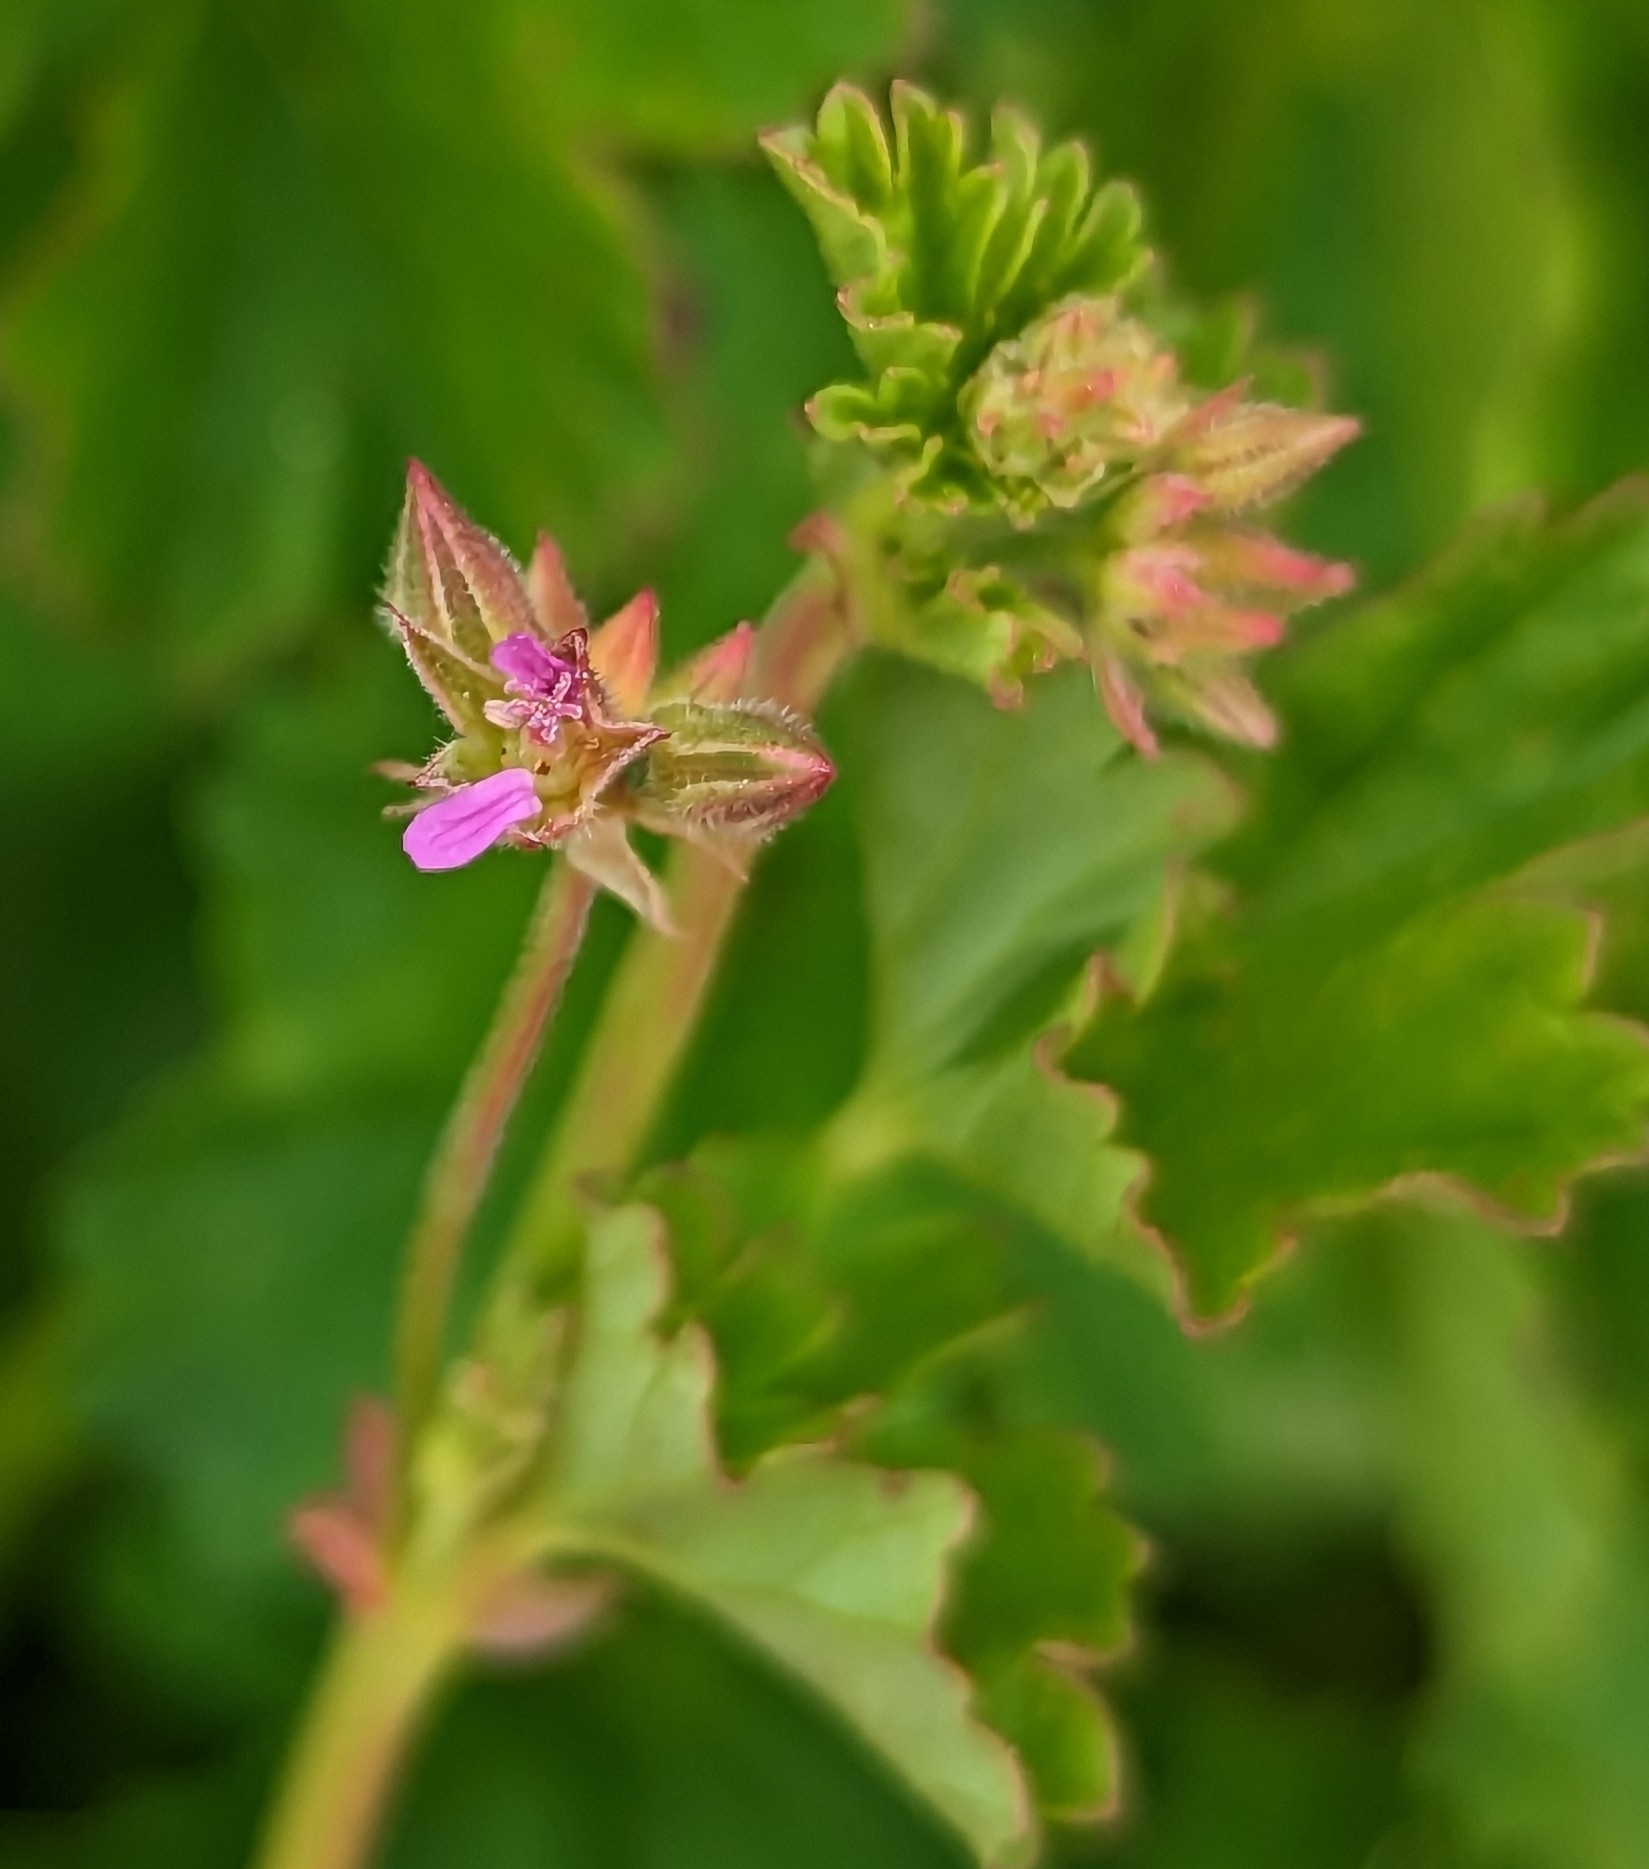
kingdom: Plantae
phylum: Tracheophyta
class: Magnoliopsida
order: Geraniales
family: Geraniaceae
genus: Pelargonium
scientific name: Pelargonium grossularioides
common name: Gooseberry geranium
